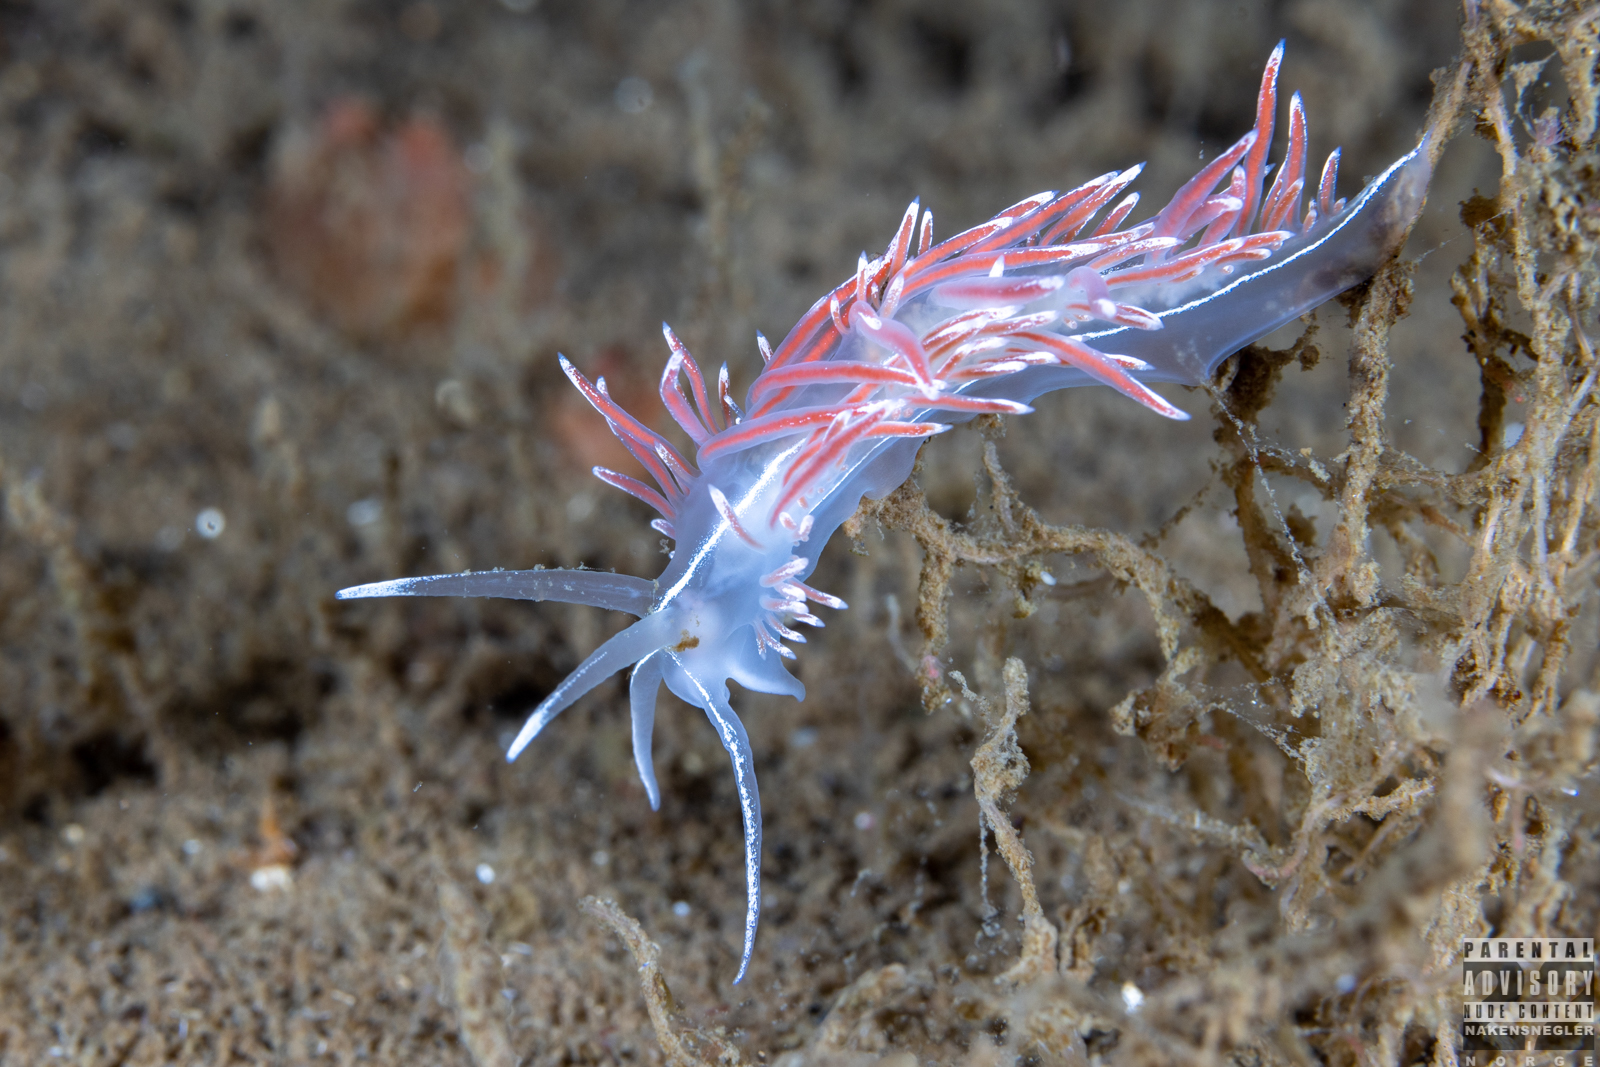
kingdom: Animalia
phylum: Mollusca
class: Gastropoda
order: Nudibranchia
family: Coryphellidae
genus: Coryphella
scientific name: Coryphella lineata
